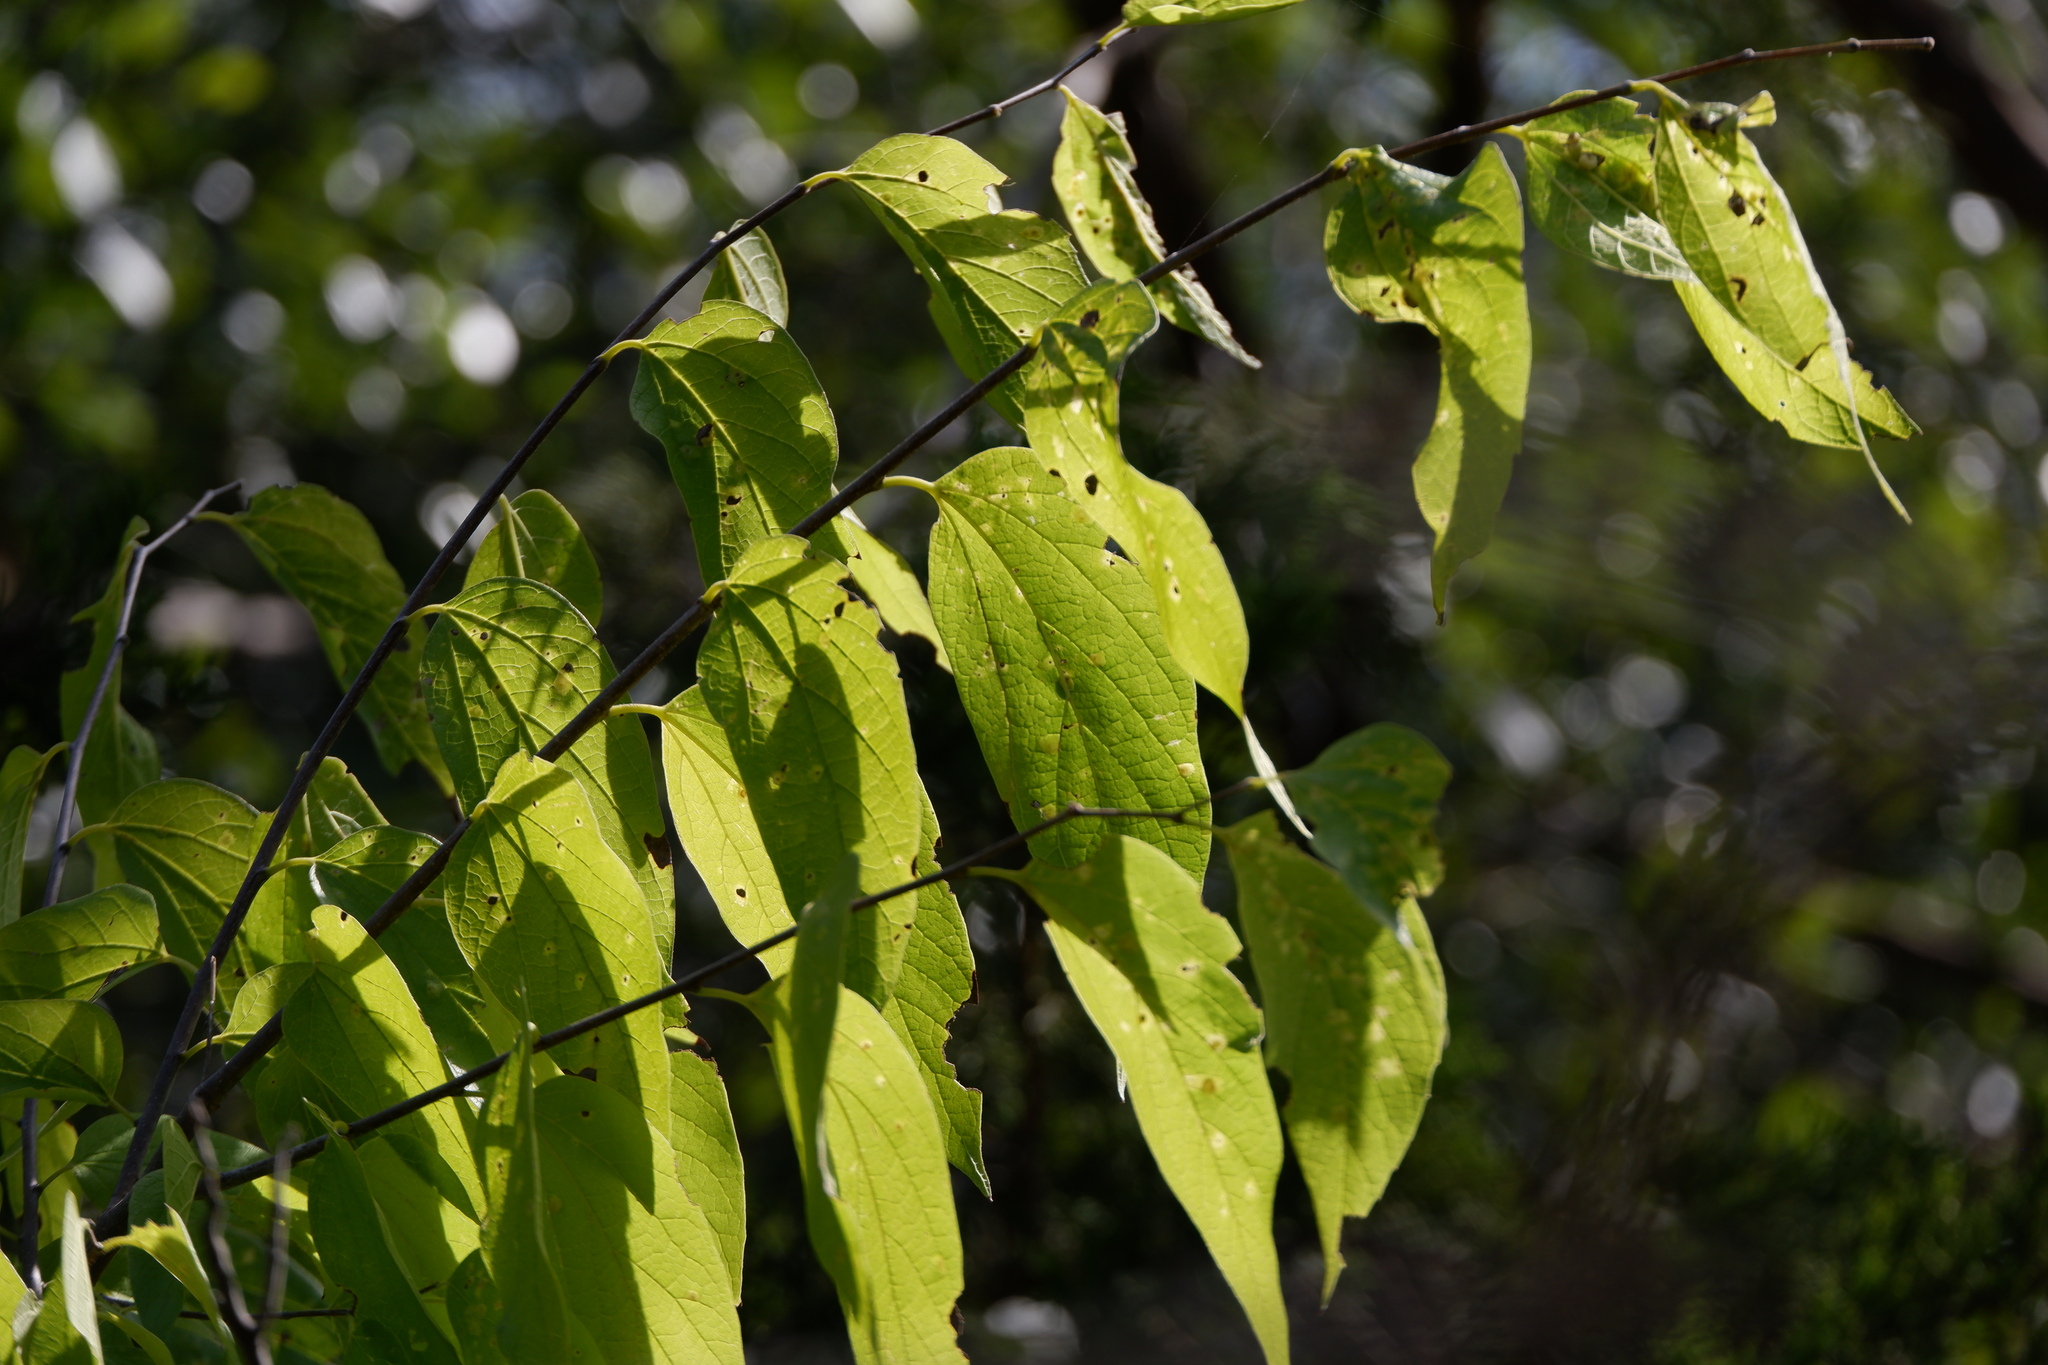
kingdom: Plantae
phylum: Tracheophyta
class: Magnoliopsida
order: Rosales
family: Cannabaceae
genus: Celtis
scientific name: Celtis laevigata
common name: Sugarberry
